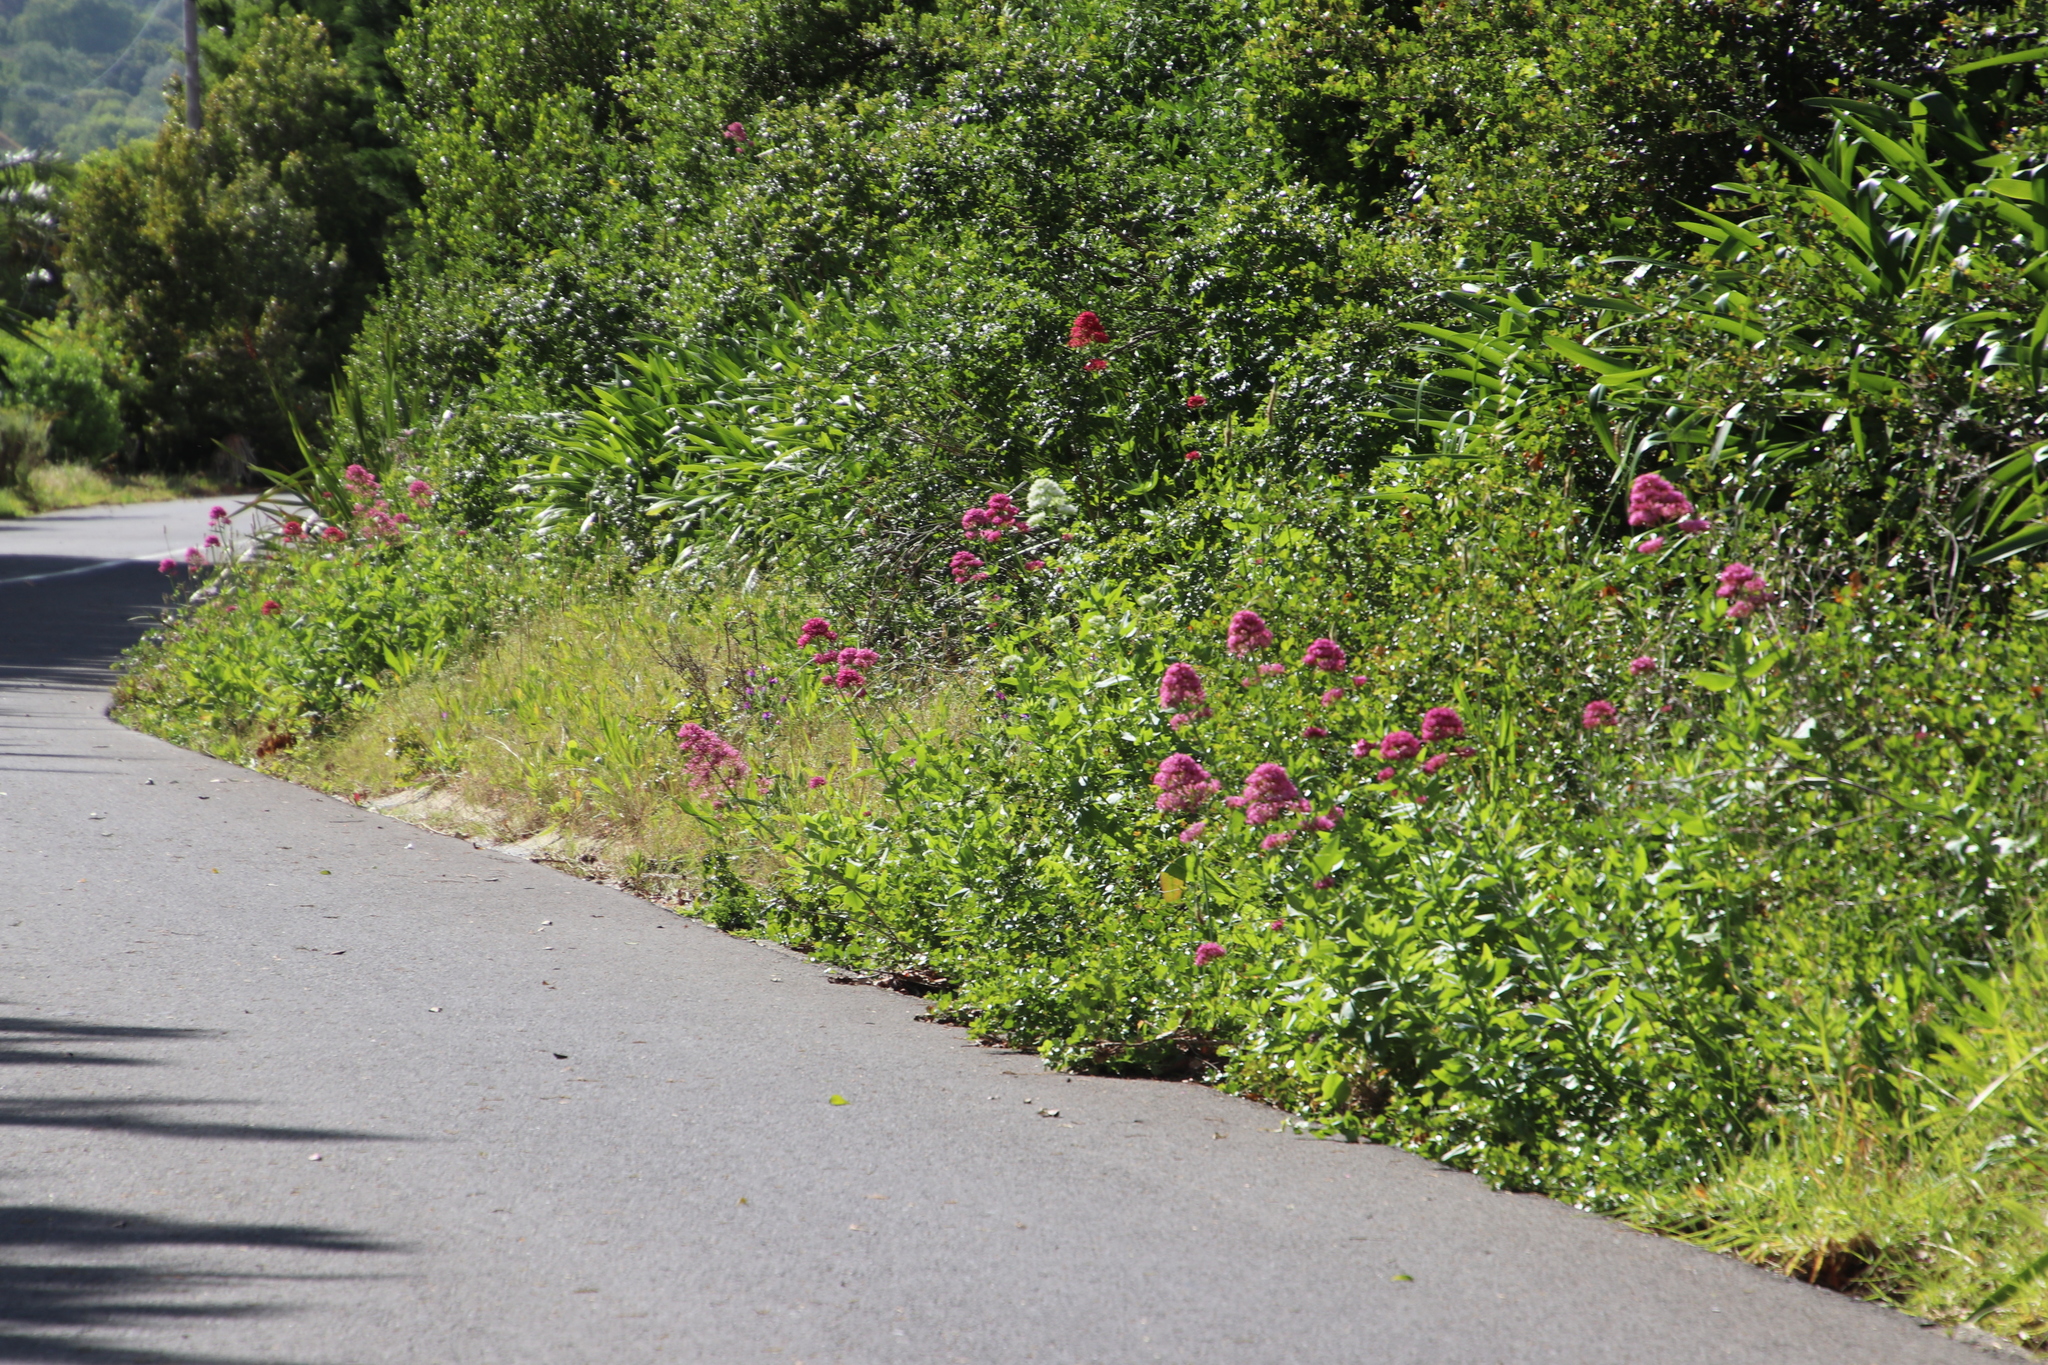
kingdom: Plantae
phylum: Tracheophyta
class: Magnoliopsida
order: Dipsacales
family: Caprifoliaceae
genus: Centranthus
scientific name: Centranthus ruber
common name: Red valerian
